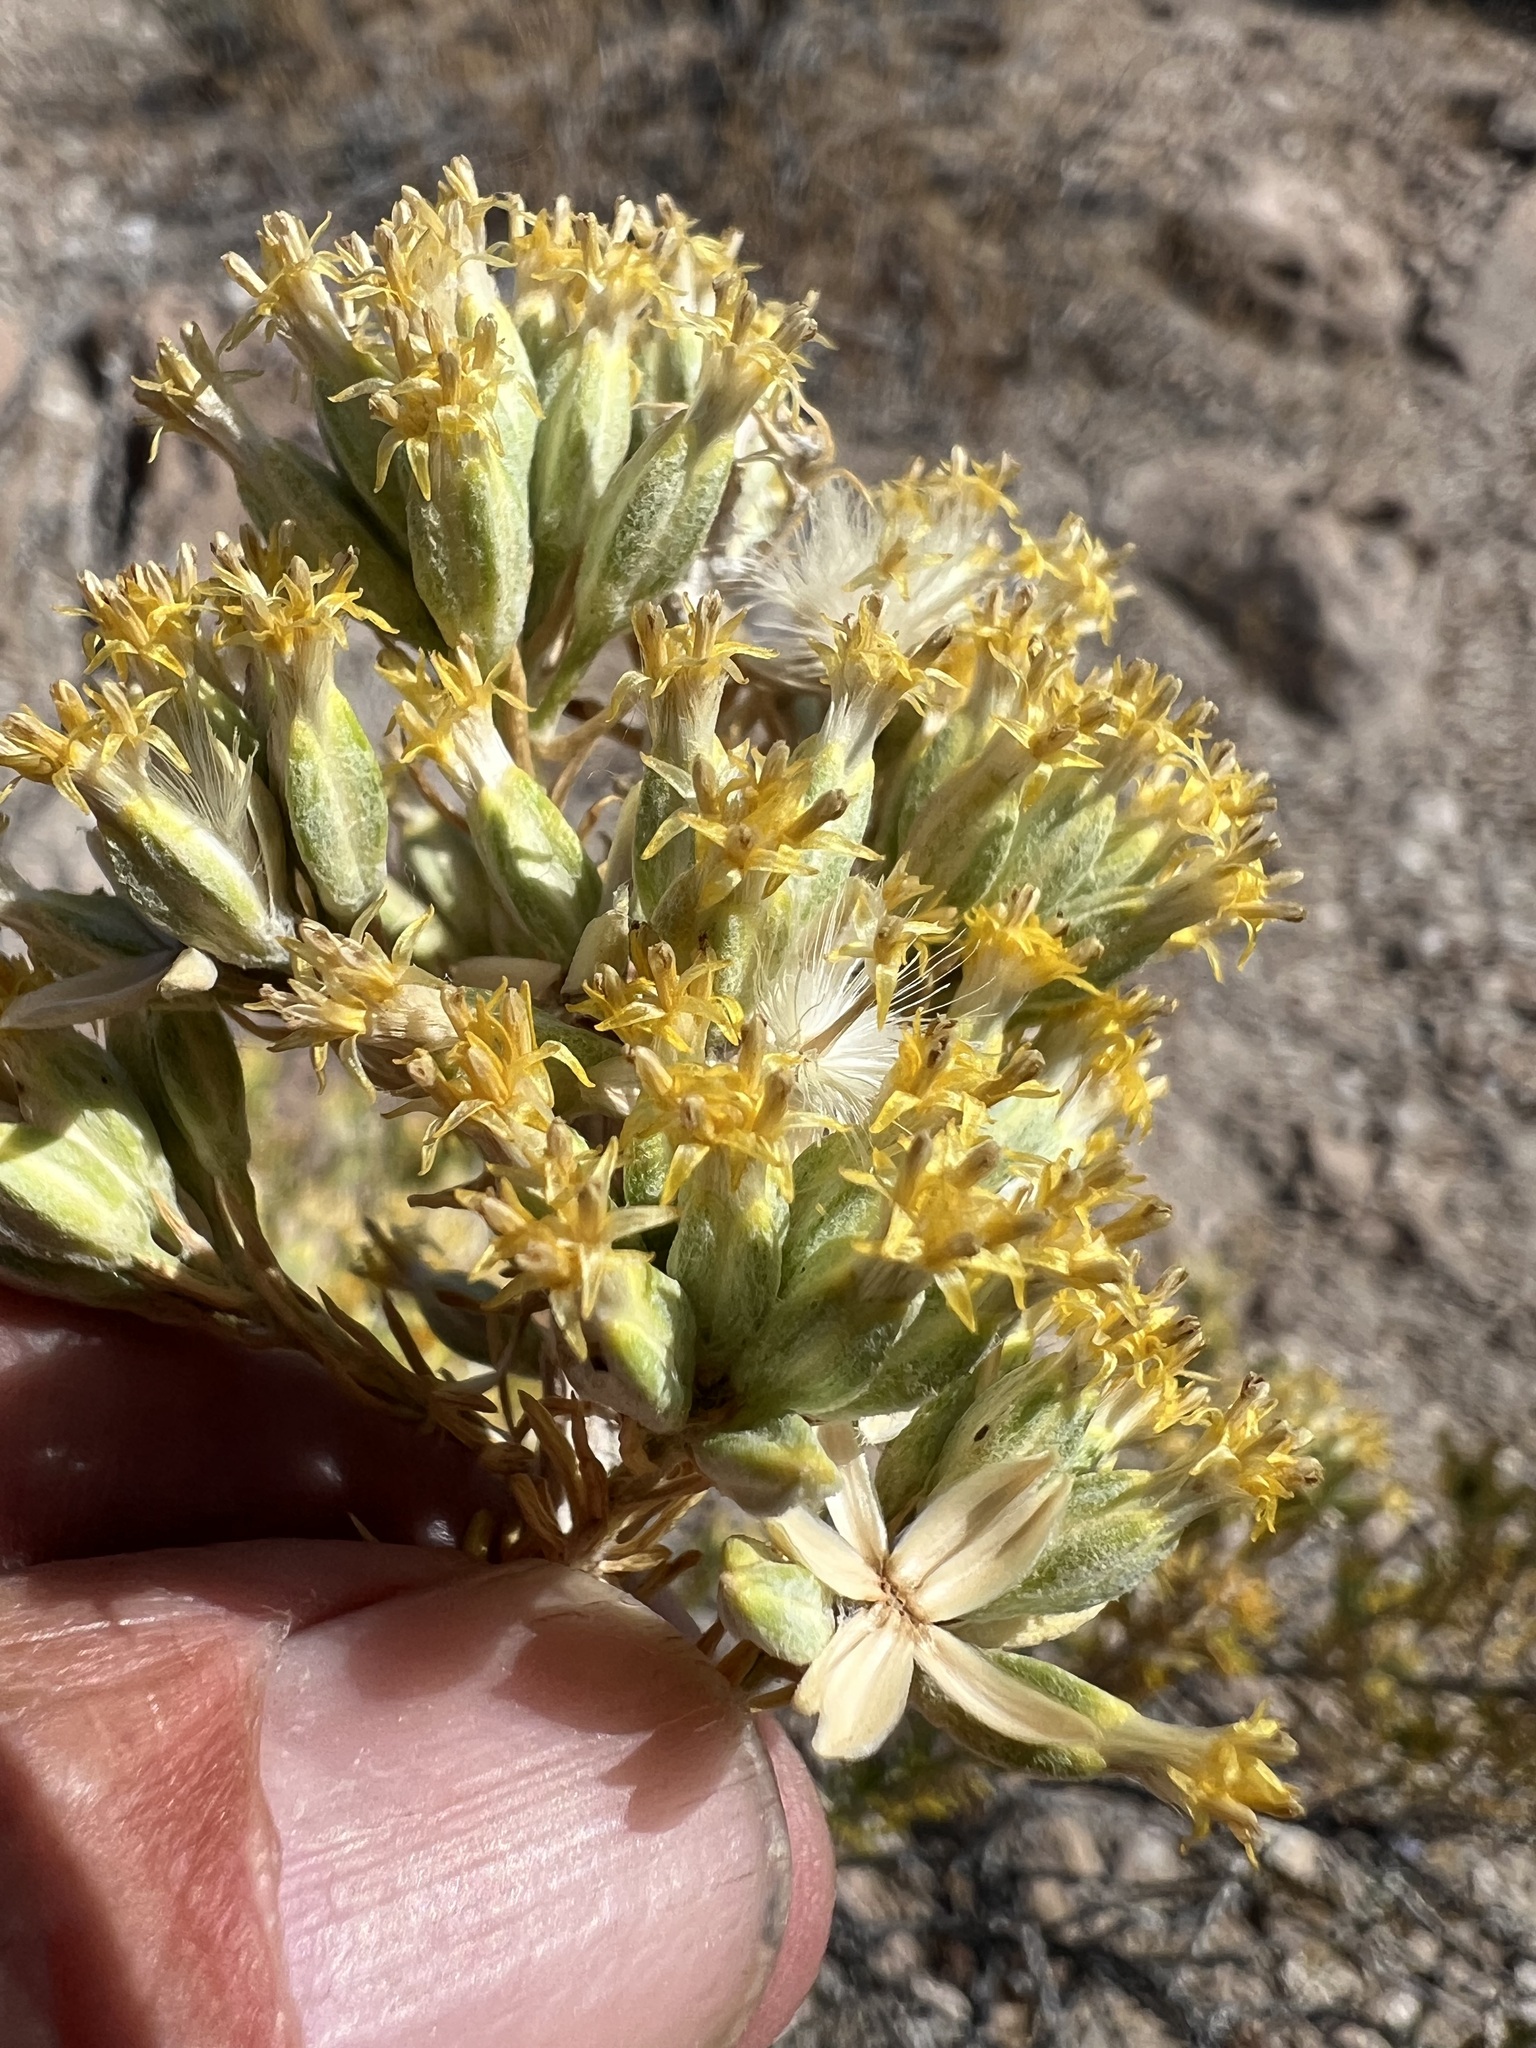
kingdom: Plantae
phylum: Tracheophyta
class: Magnoliopsida
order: Asterales
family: Asteraceae
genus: Tetradymia
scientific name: Tetradymia glabrata
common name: Smooth tetradymia
